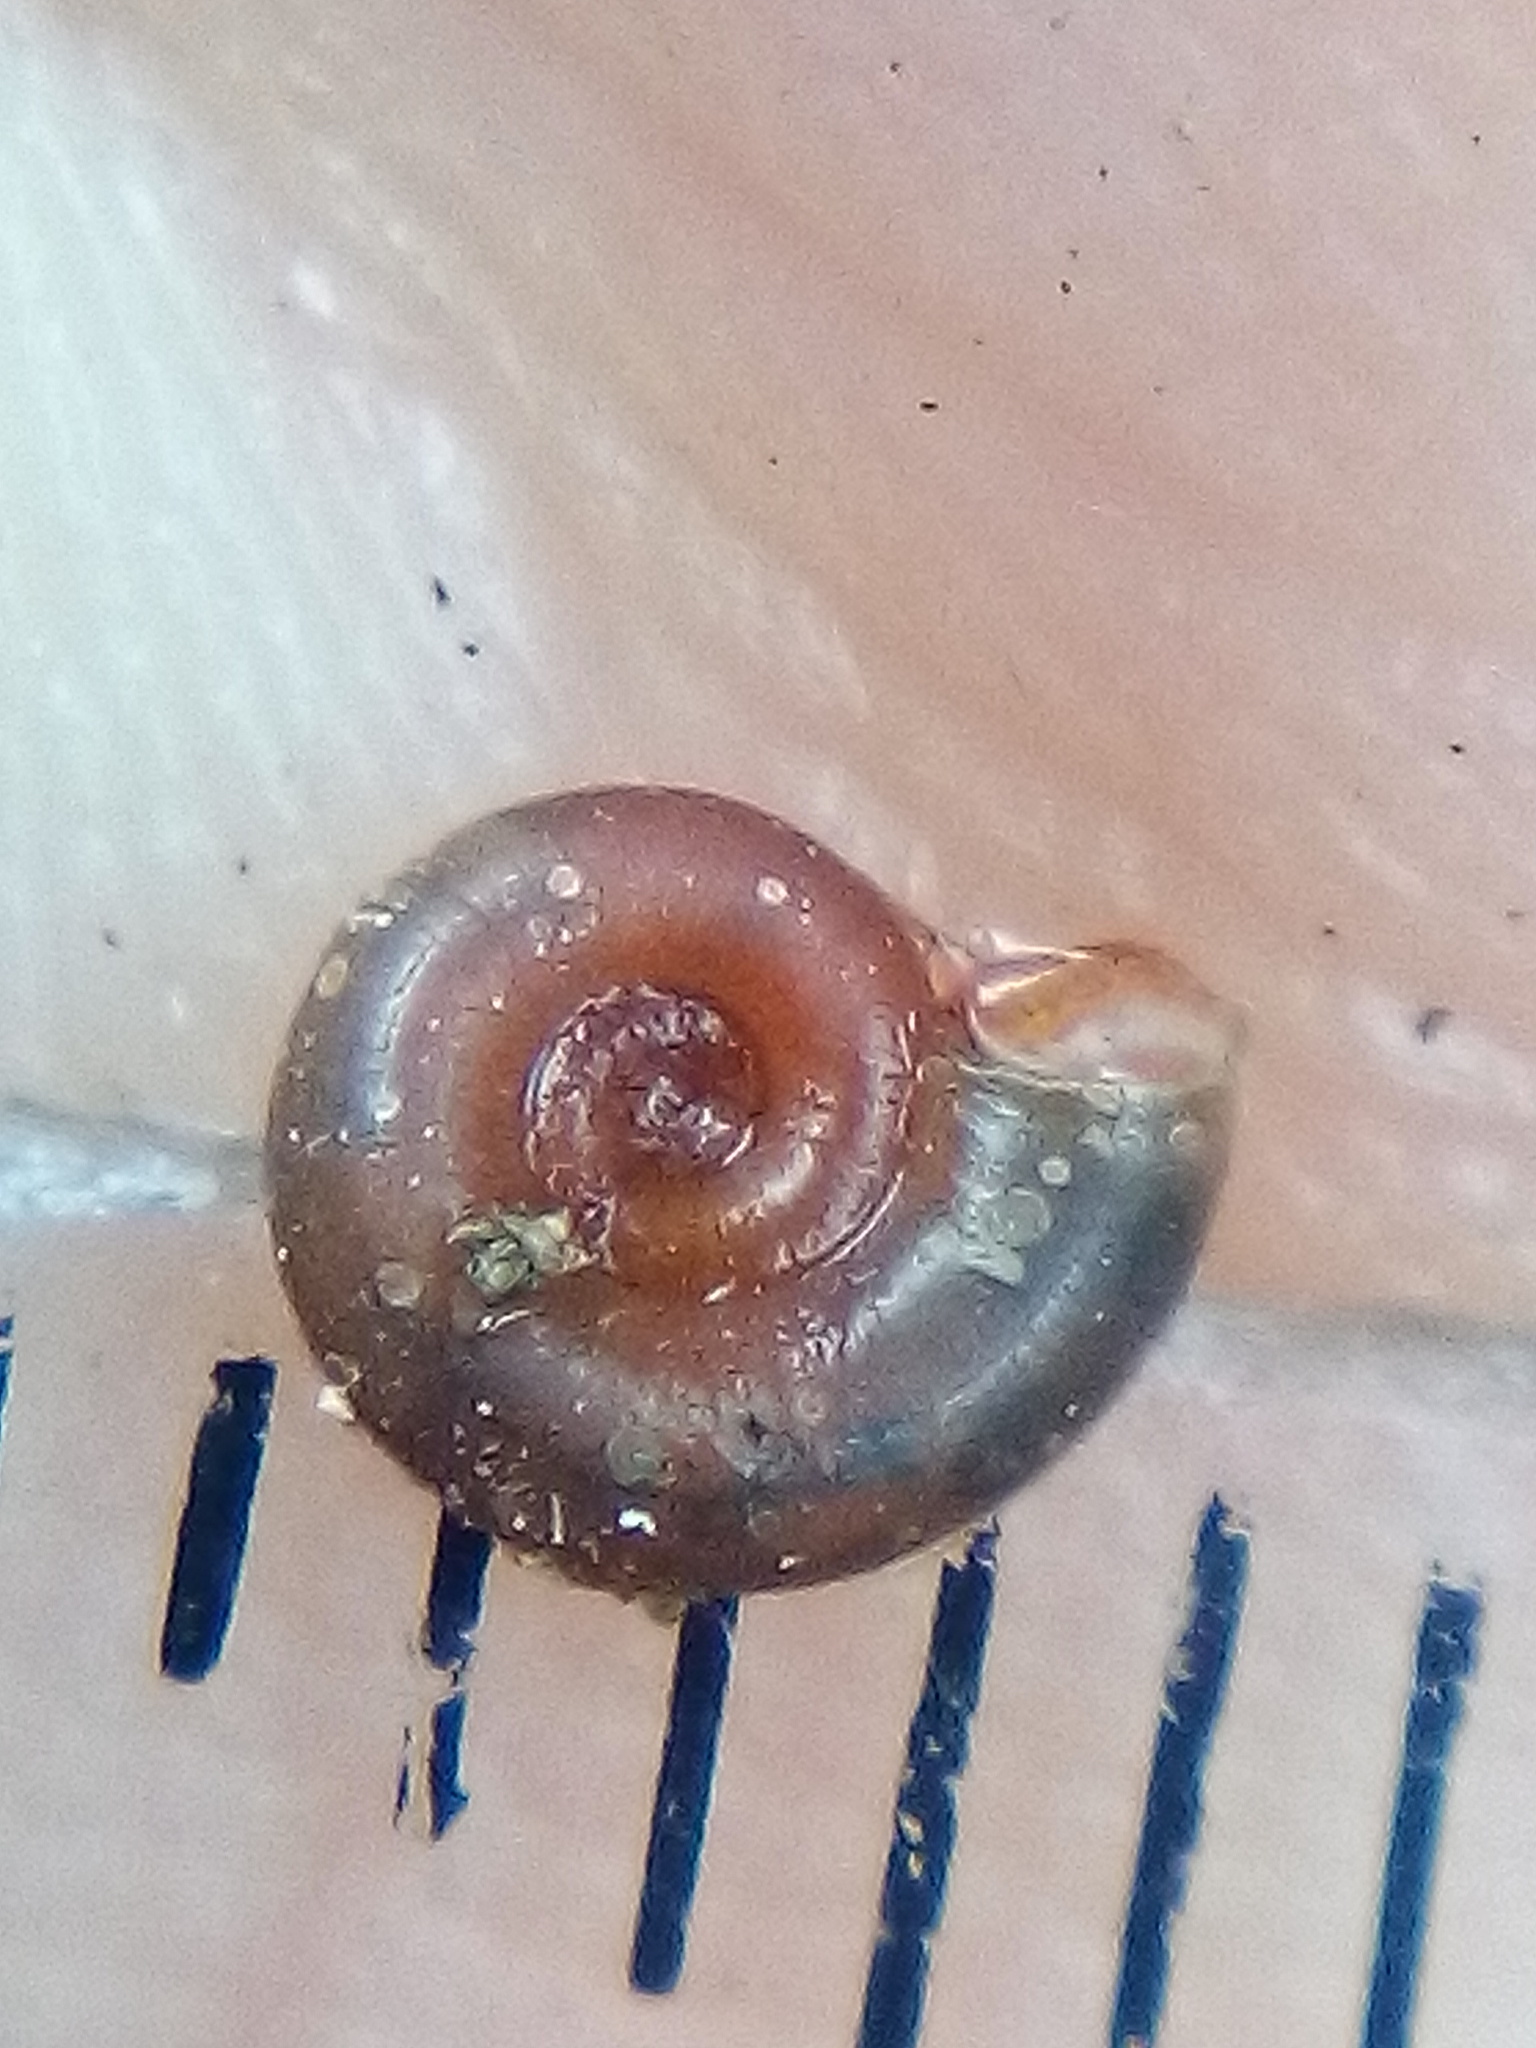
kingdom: Animalia
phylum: Mollusca
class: Gastropoda
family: Planorbidae
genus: Gyraulus
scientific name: Gyraulus corinna
